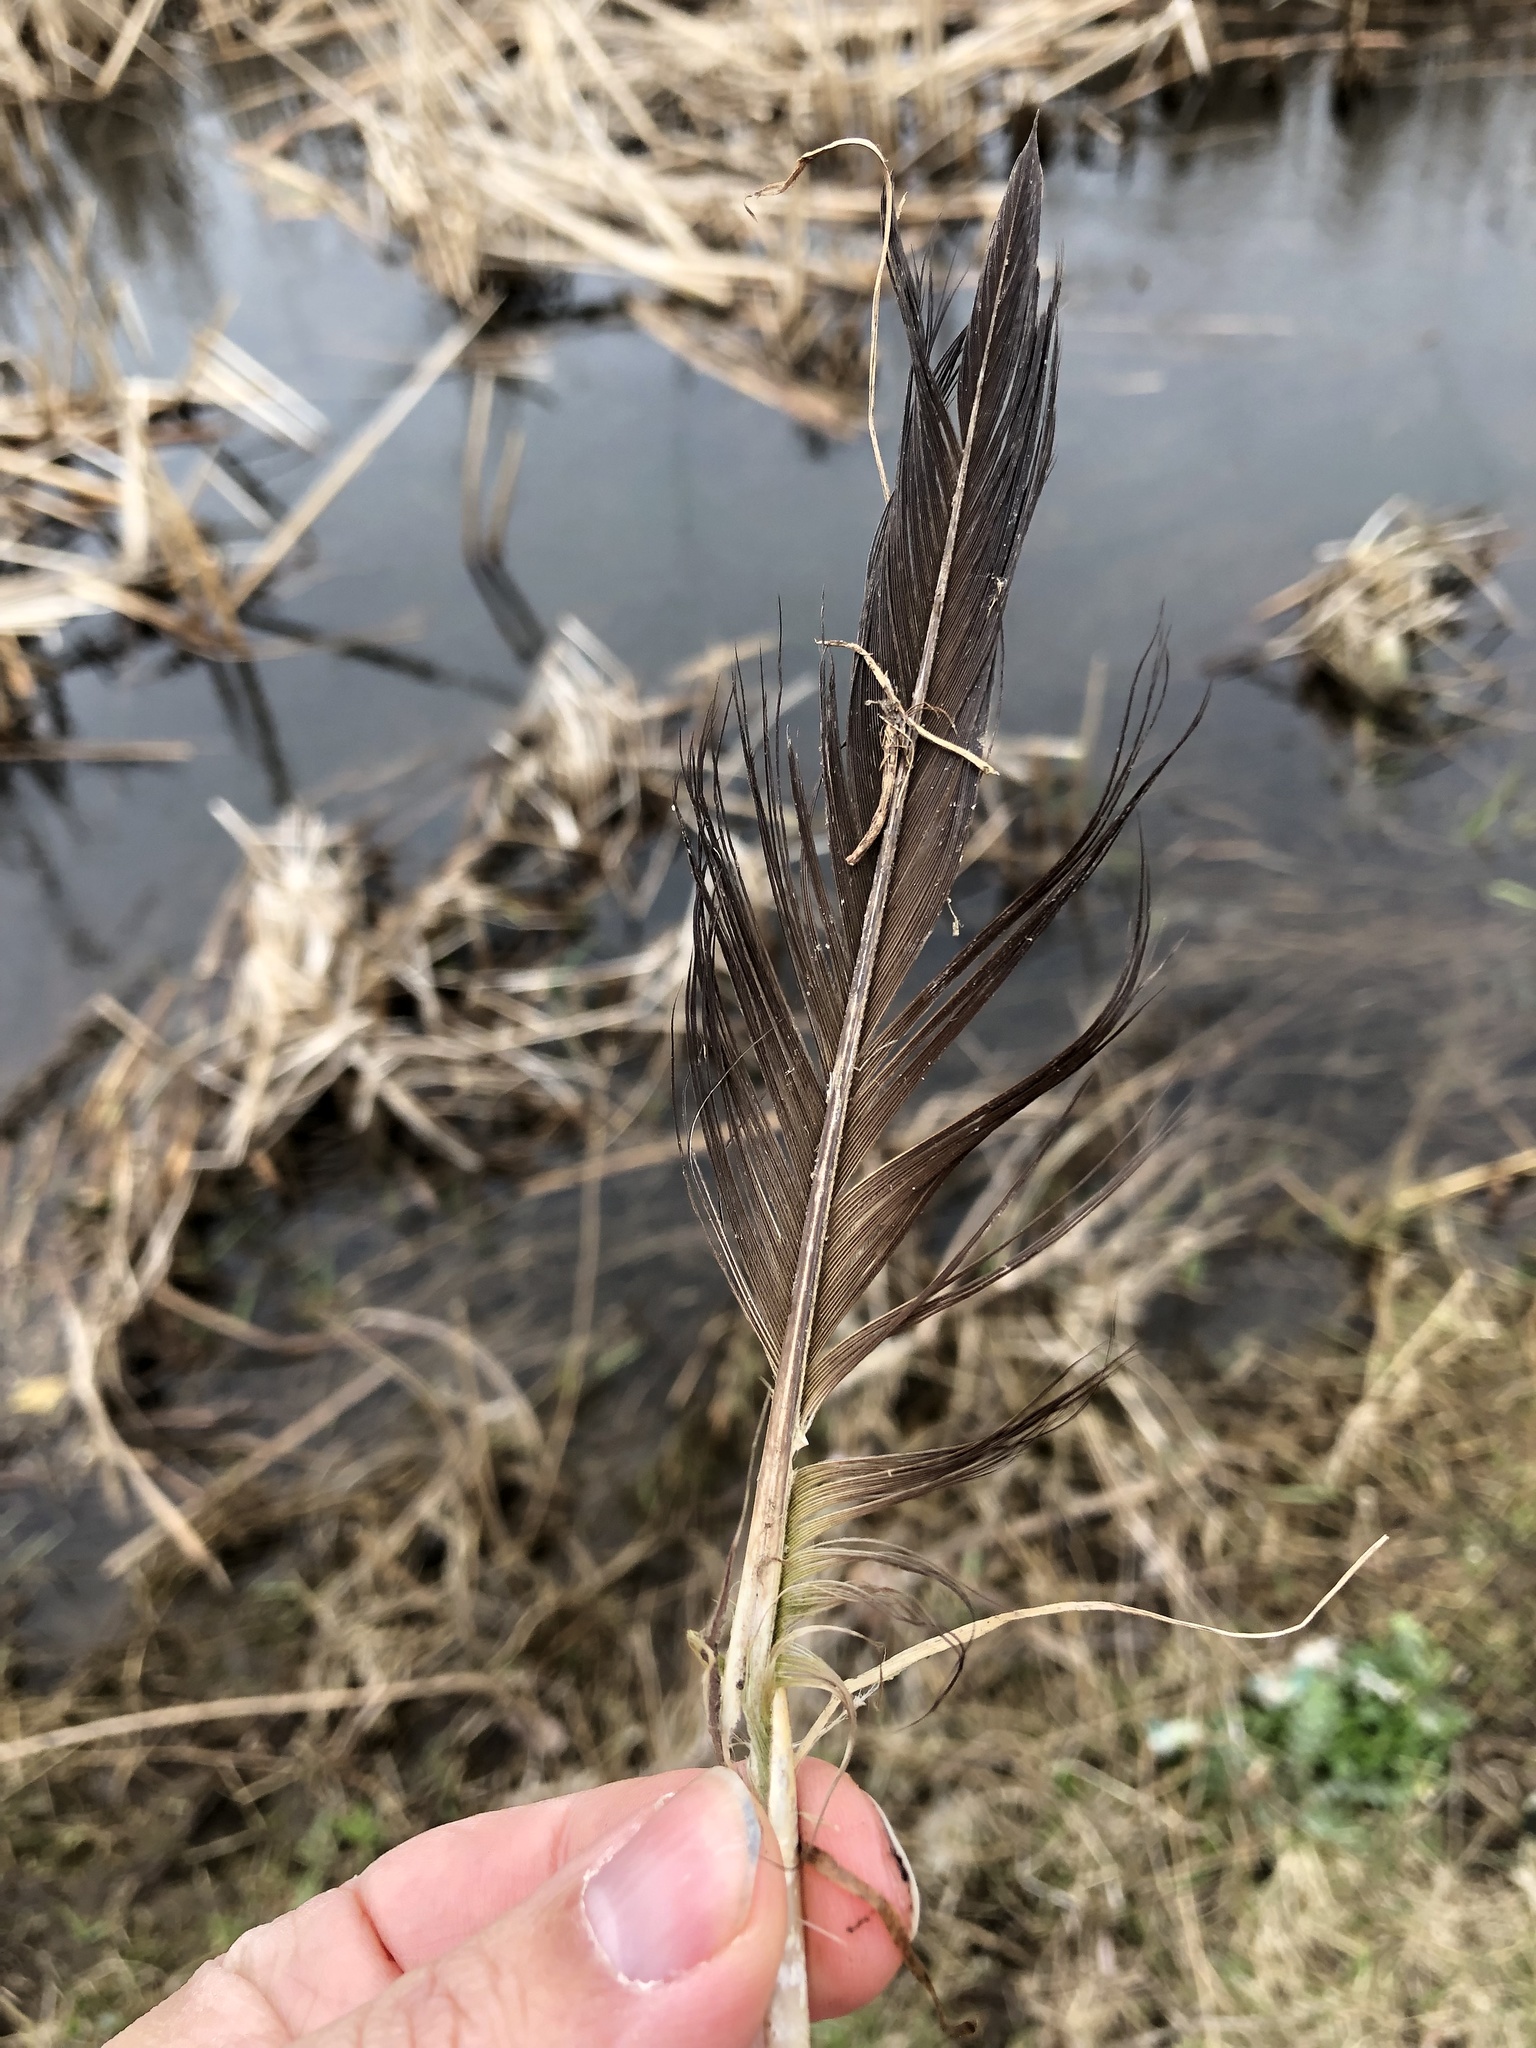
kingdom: Animalia
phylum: Chordata
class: Aves
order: Anseriformes
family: Anatidae
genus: Branta
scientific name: Branta canadensis
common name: Canada goose
